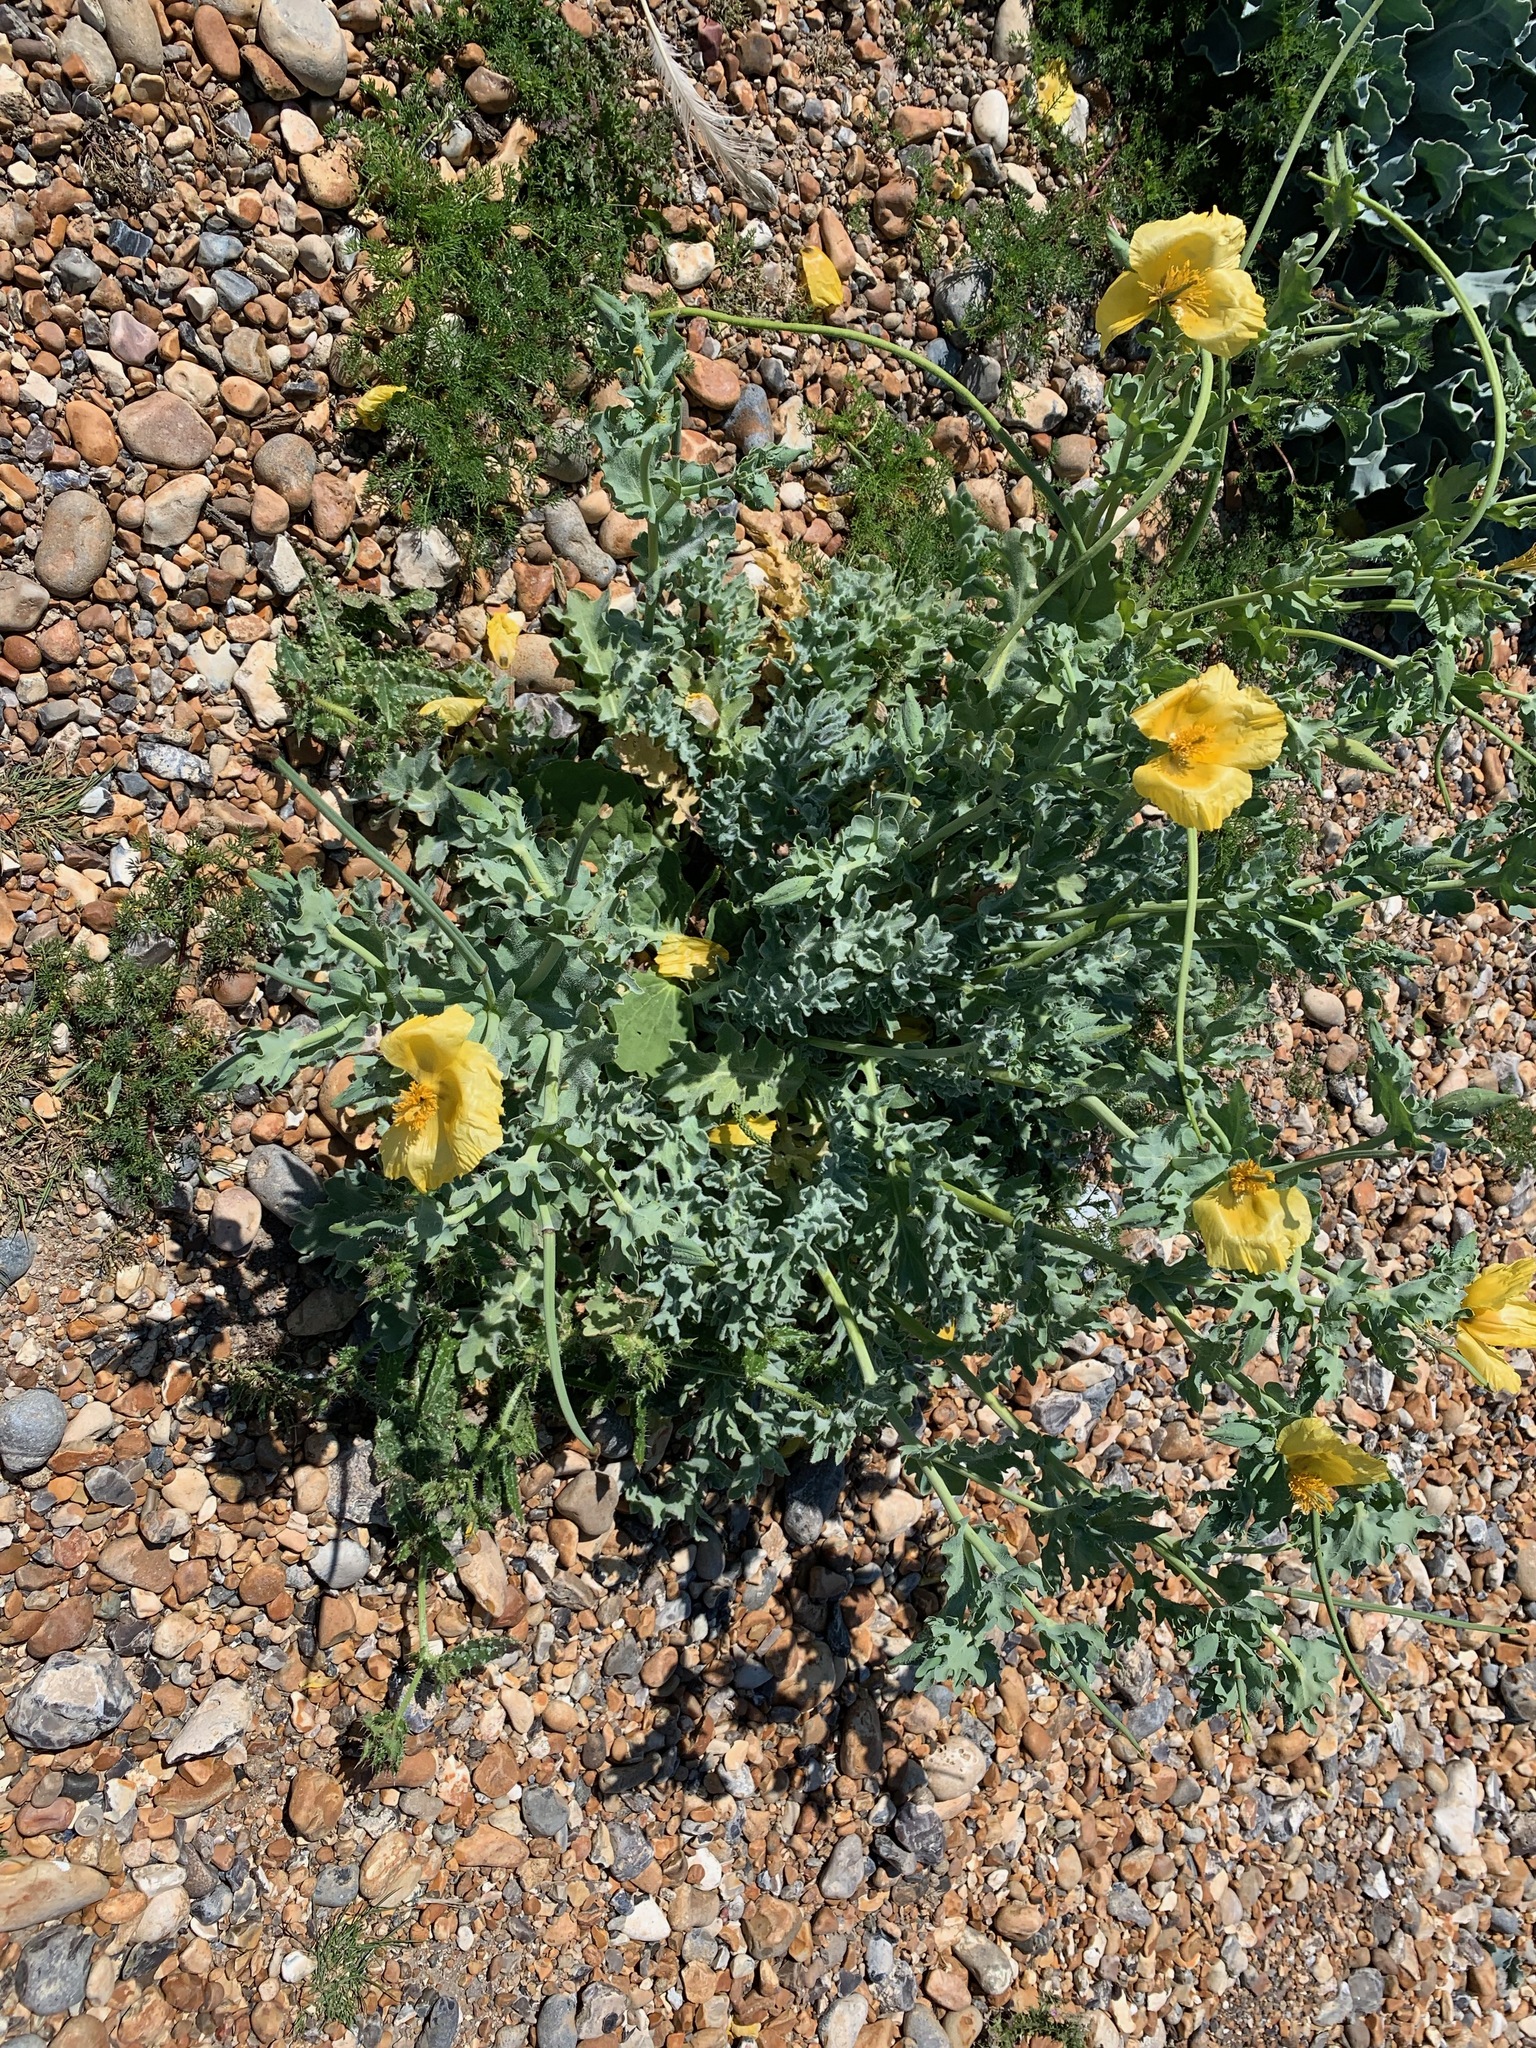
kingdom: Plantae
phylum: Tracheophyta
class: Magnoliopsida
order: Ranunculales
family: Papaveraceae
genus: Glaucium
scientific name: Glaucium flavum
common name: Yellow horned-poppy
